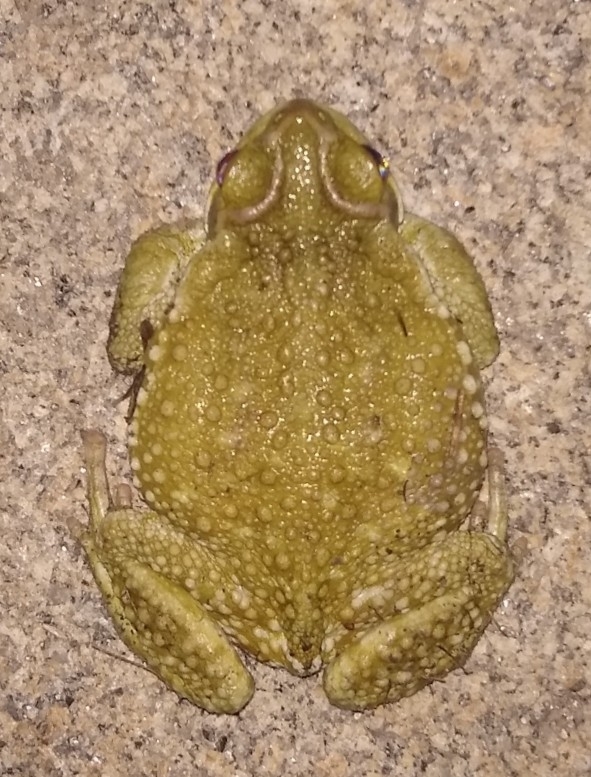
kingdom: Animalia
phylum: Chordata
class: Amphibia
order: Anura
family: Bufonidae
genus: Rhinella
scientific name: Rhinella arenarum
